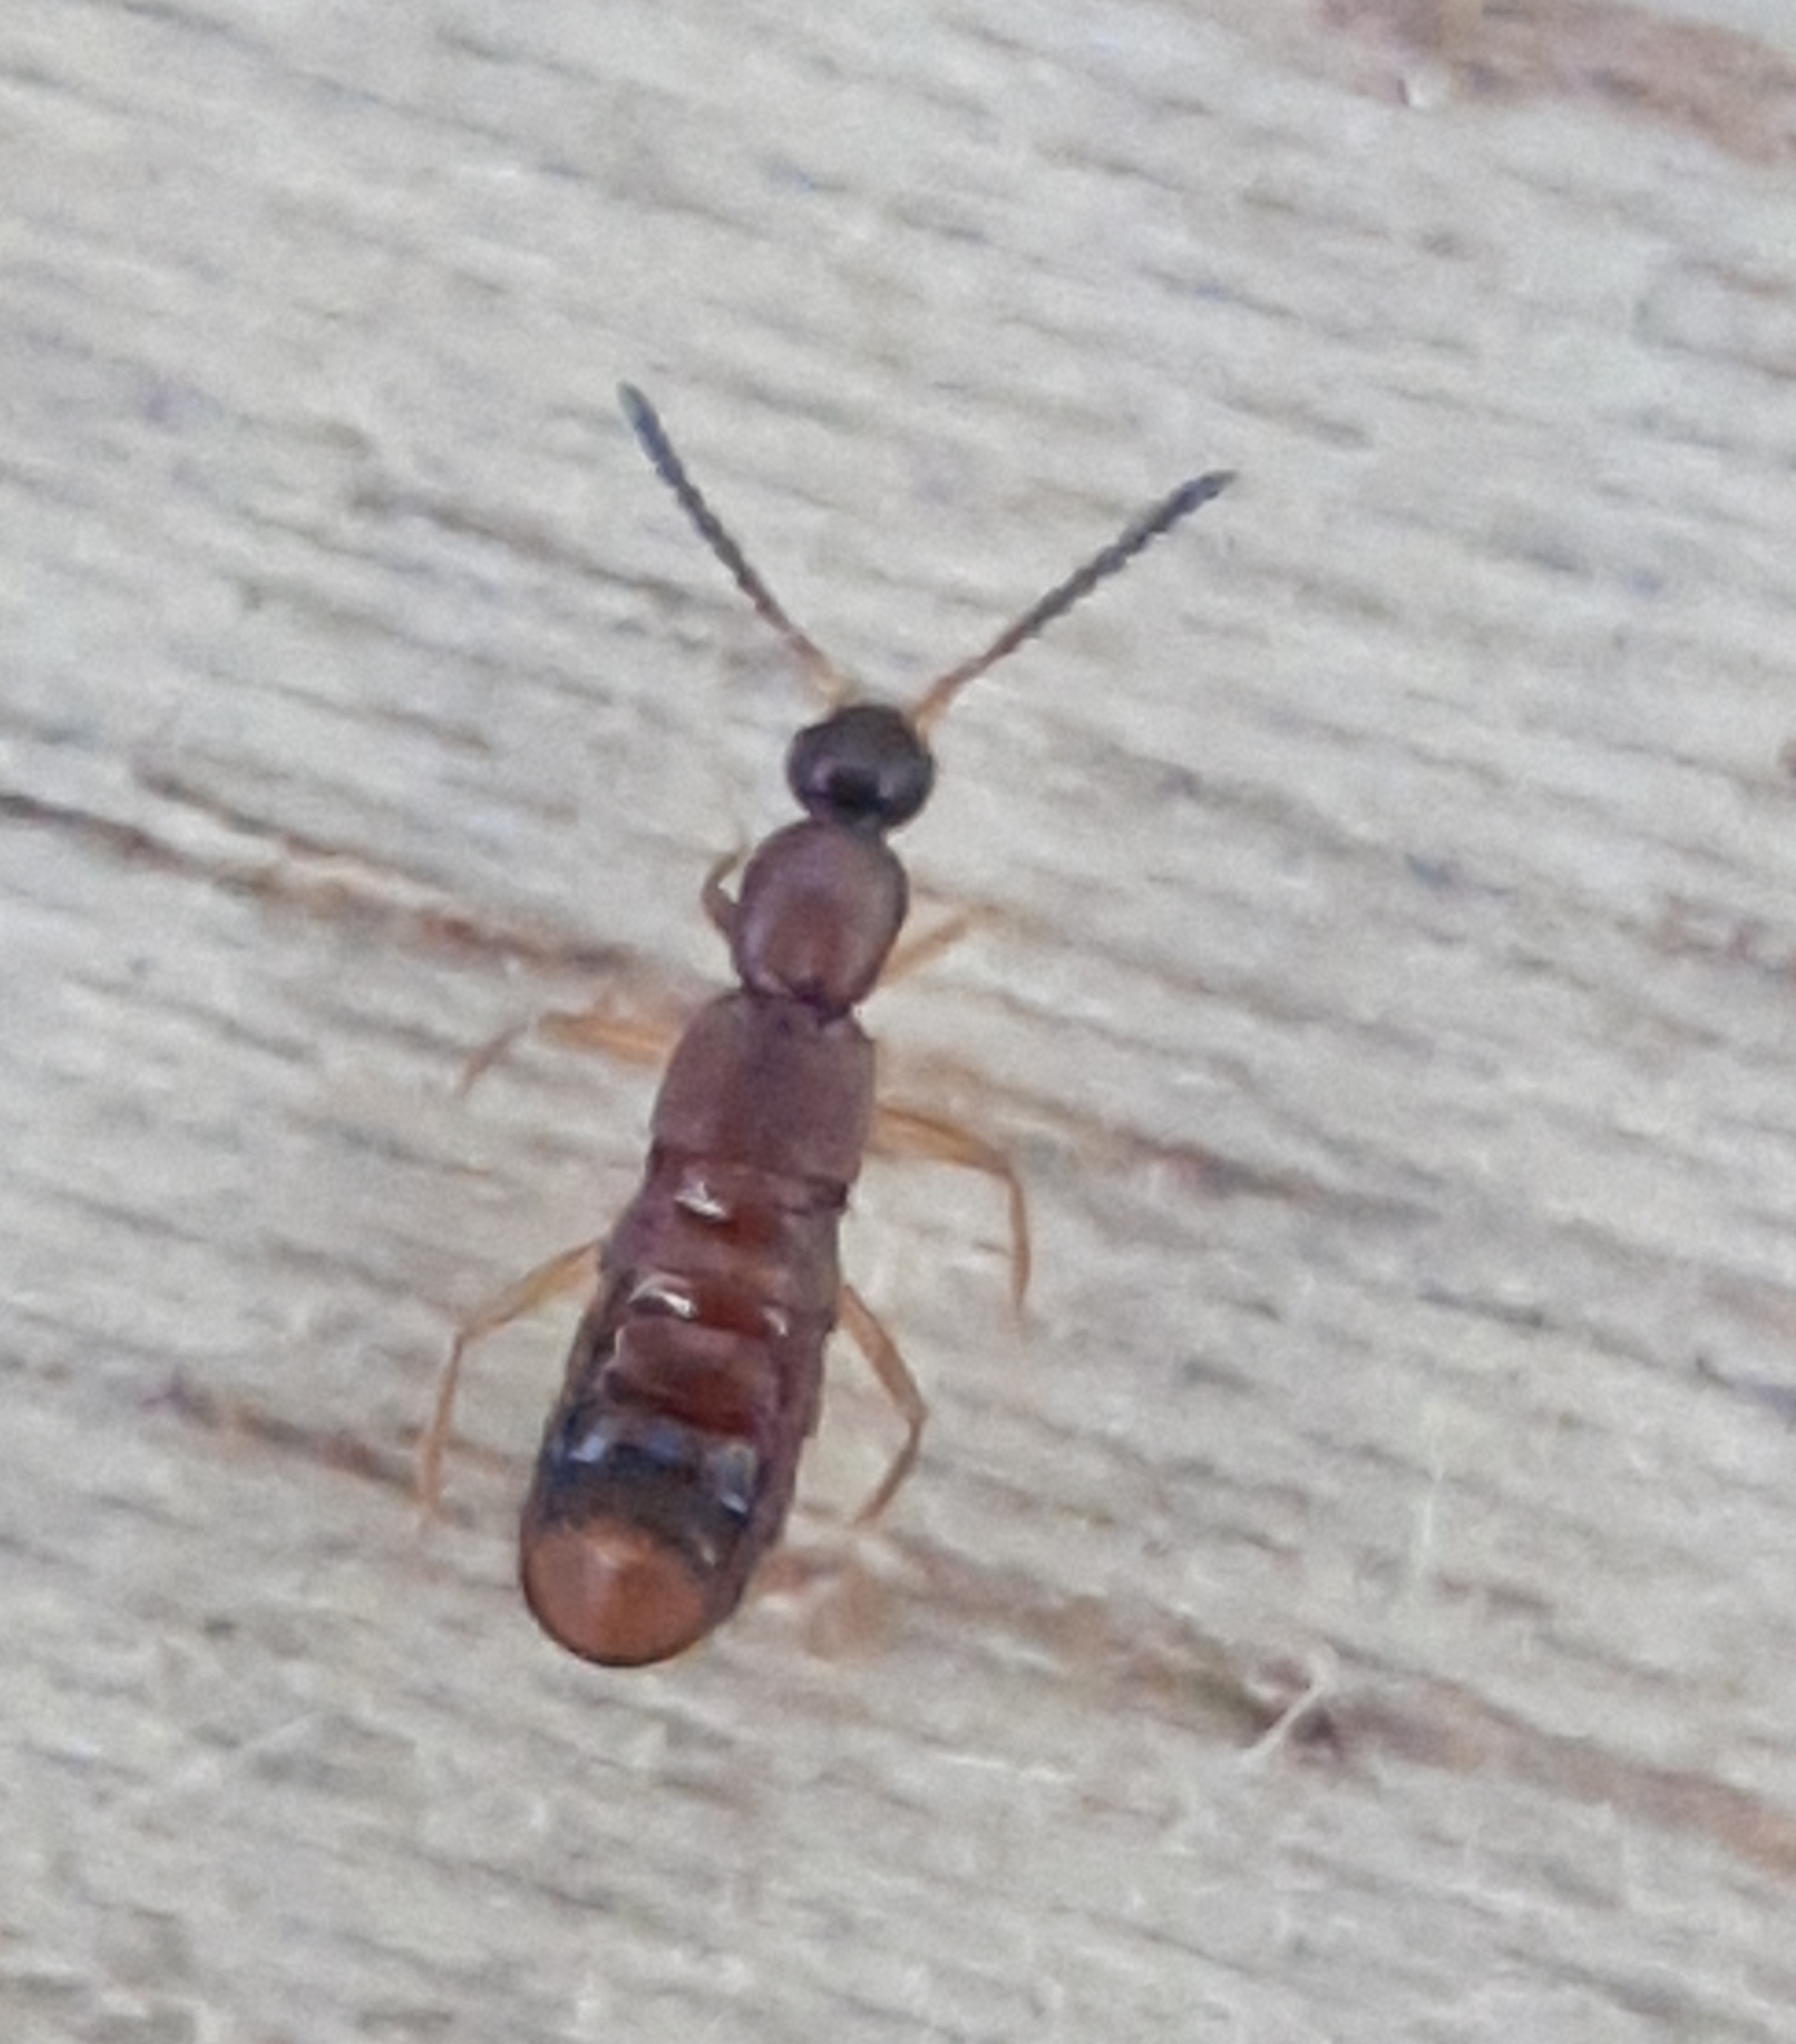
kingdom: Animalia
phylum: Arthropoda
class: Insecta
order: Coleoptera
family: Staphylinidae
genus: Drusilla
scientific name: Drusilla canaliculata
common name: Rove beetle
